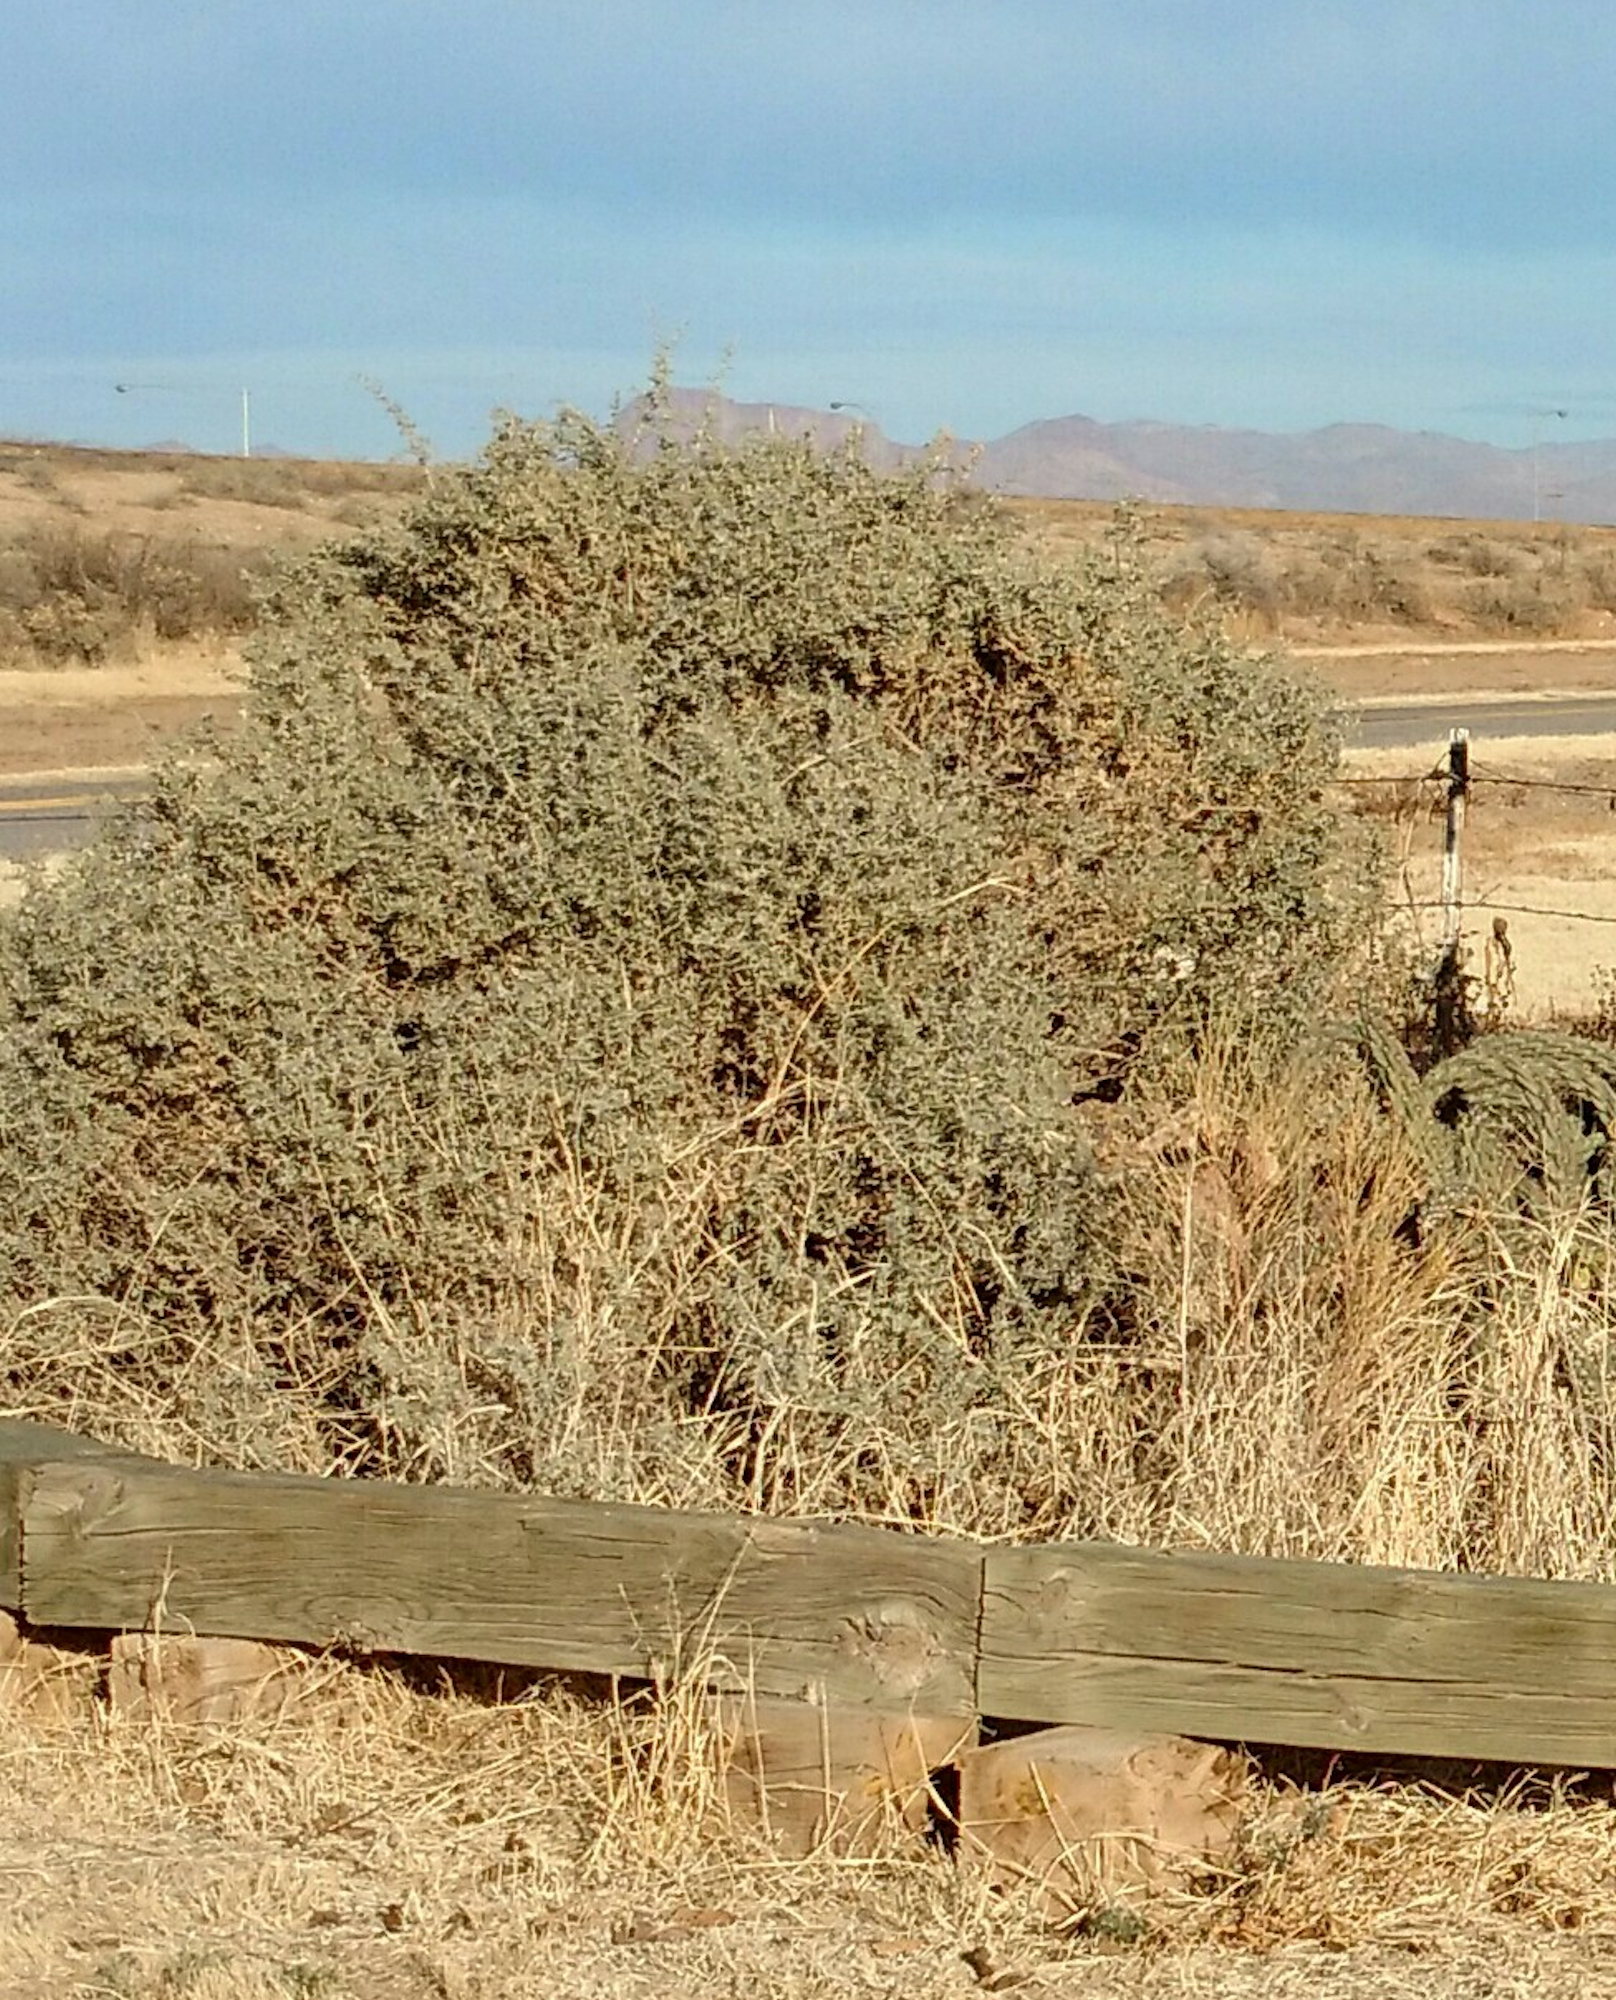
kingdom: Plantae
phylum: Tracheophyta
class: Magnoliopsida
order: Caryophyllales
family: Amaranthaceae
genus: Atriplex
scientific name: Atriplex canescens
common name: Four-wing saltbush
